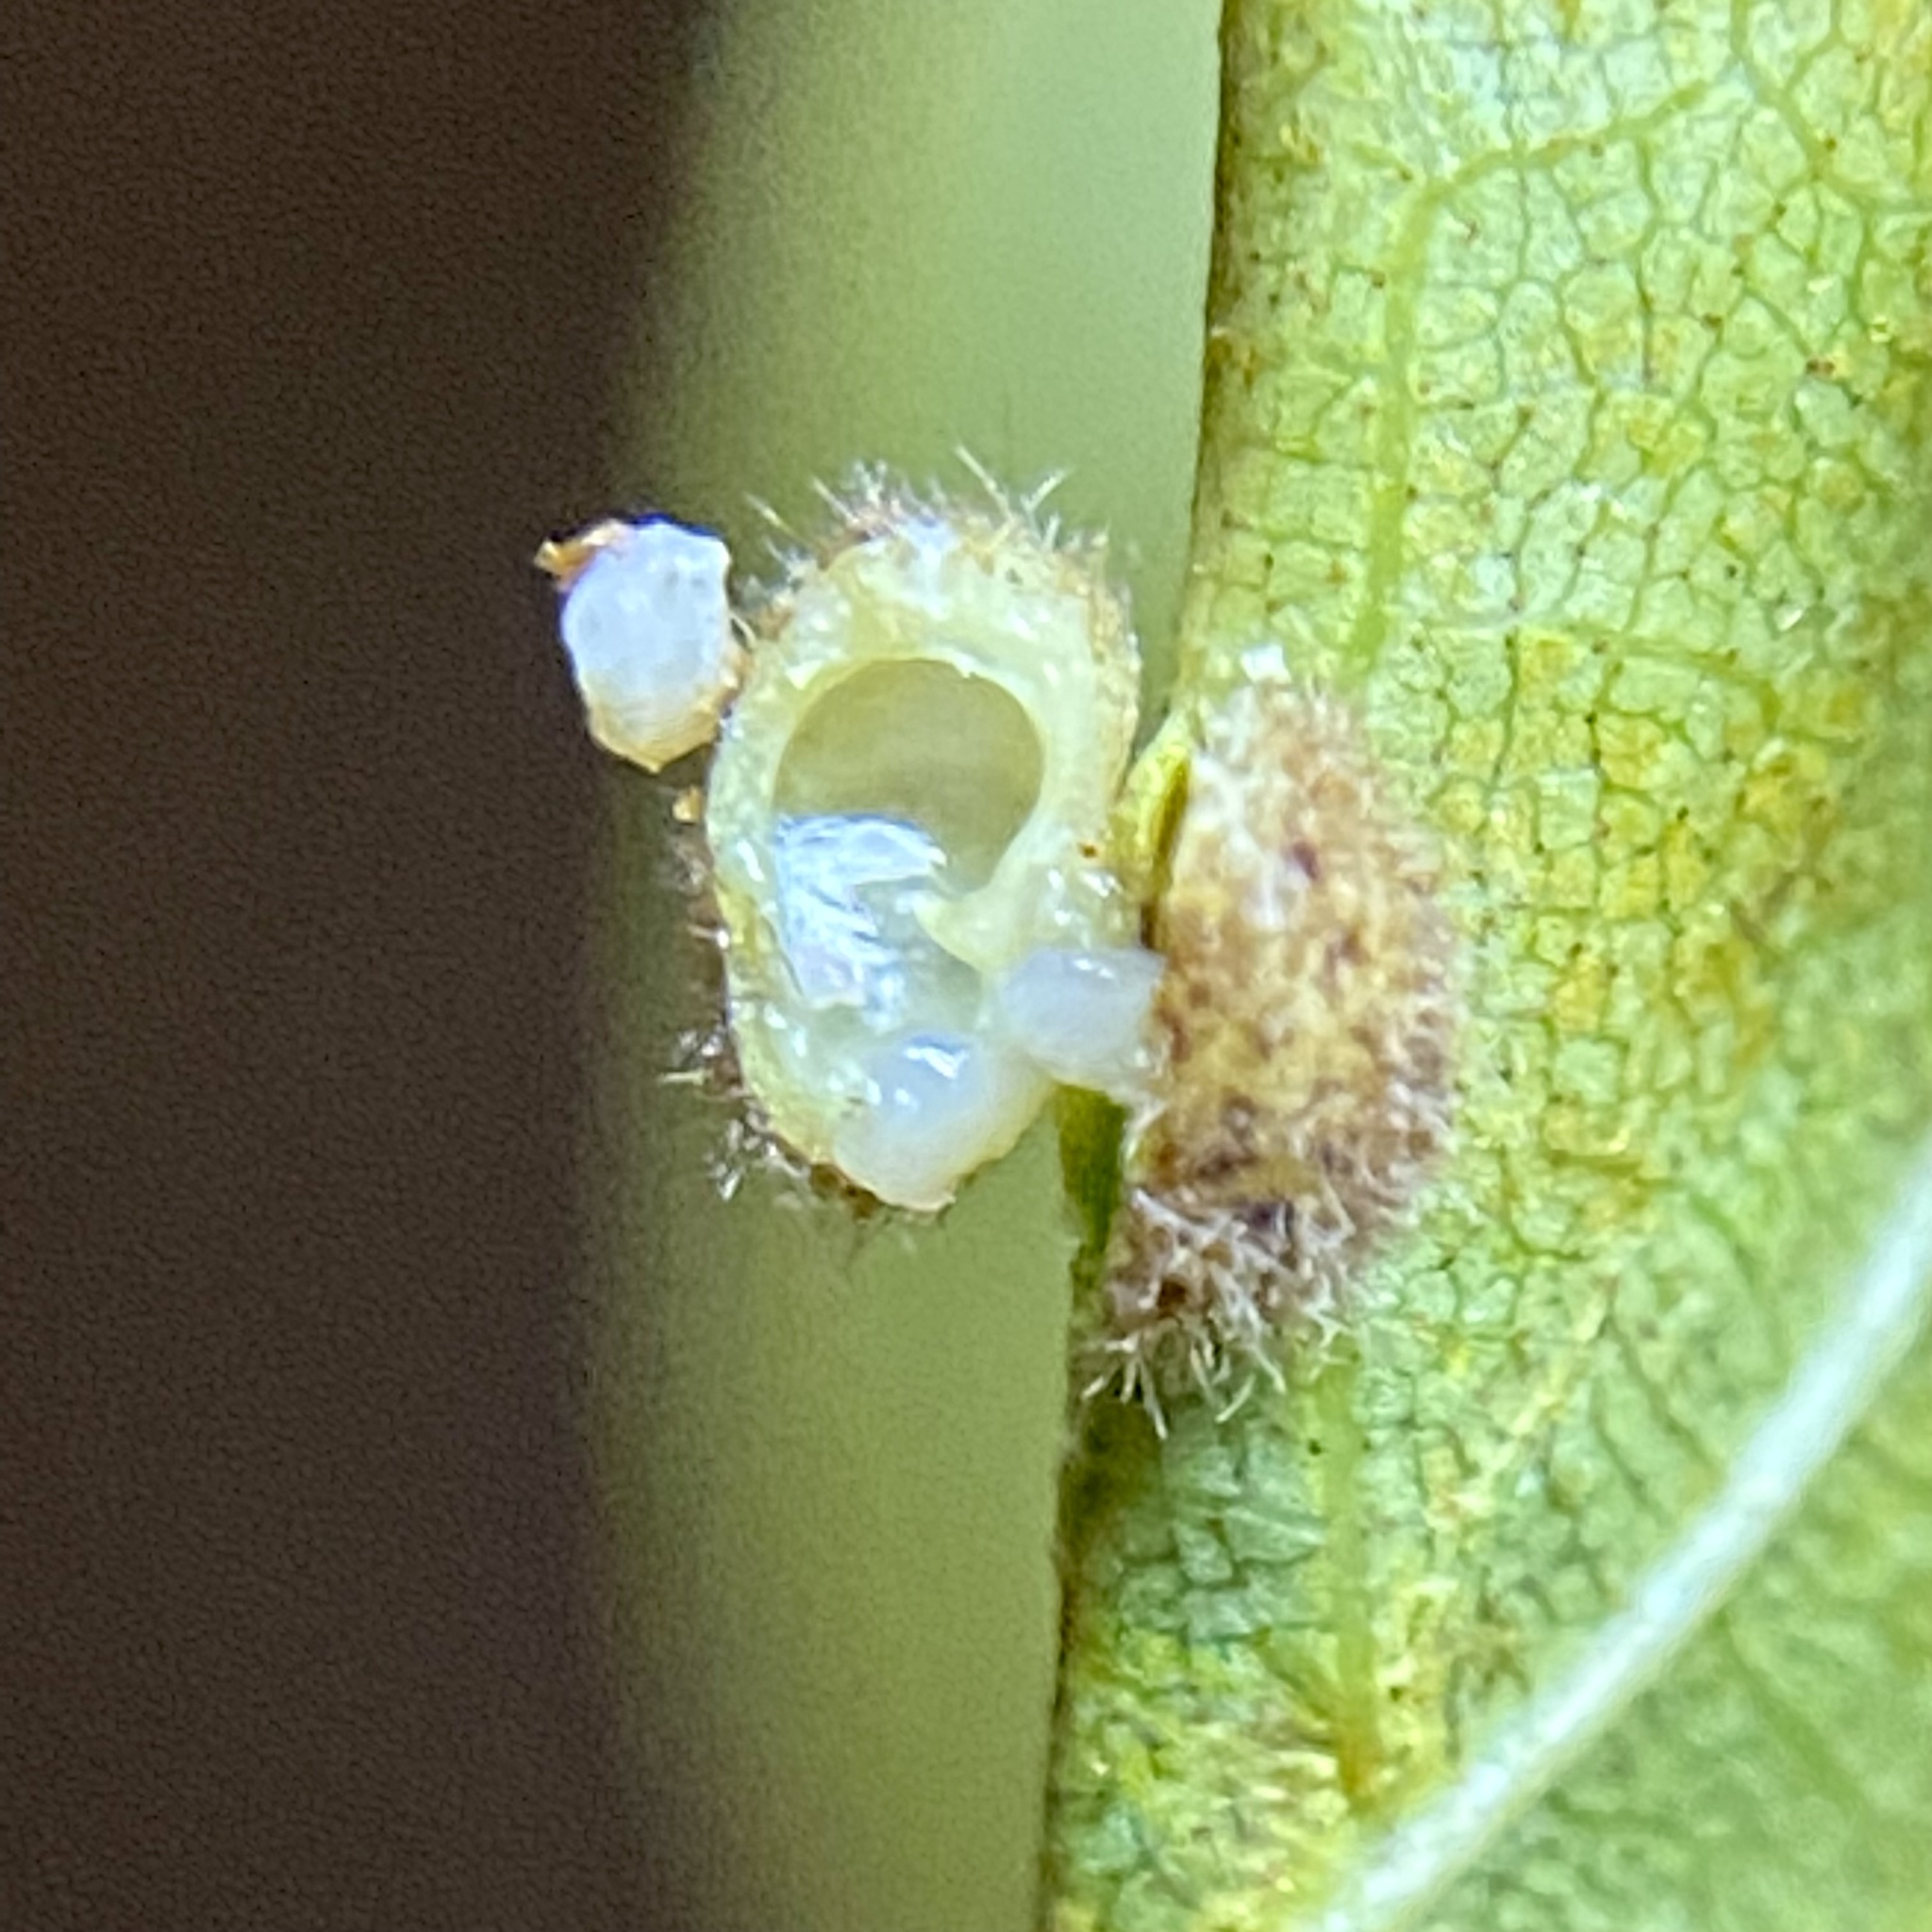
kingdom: Animalia
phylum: Arthropoda
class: Insecta
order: Diptera
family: Cecidomyiidae
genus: Caryomyia
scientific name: Caryomyia thompsoni
